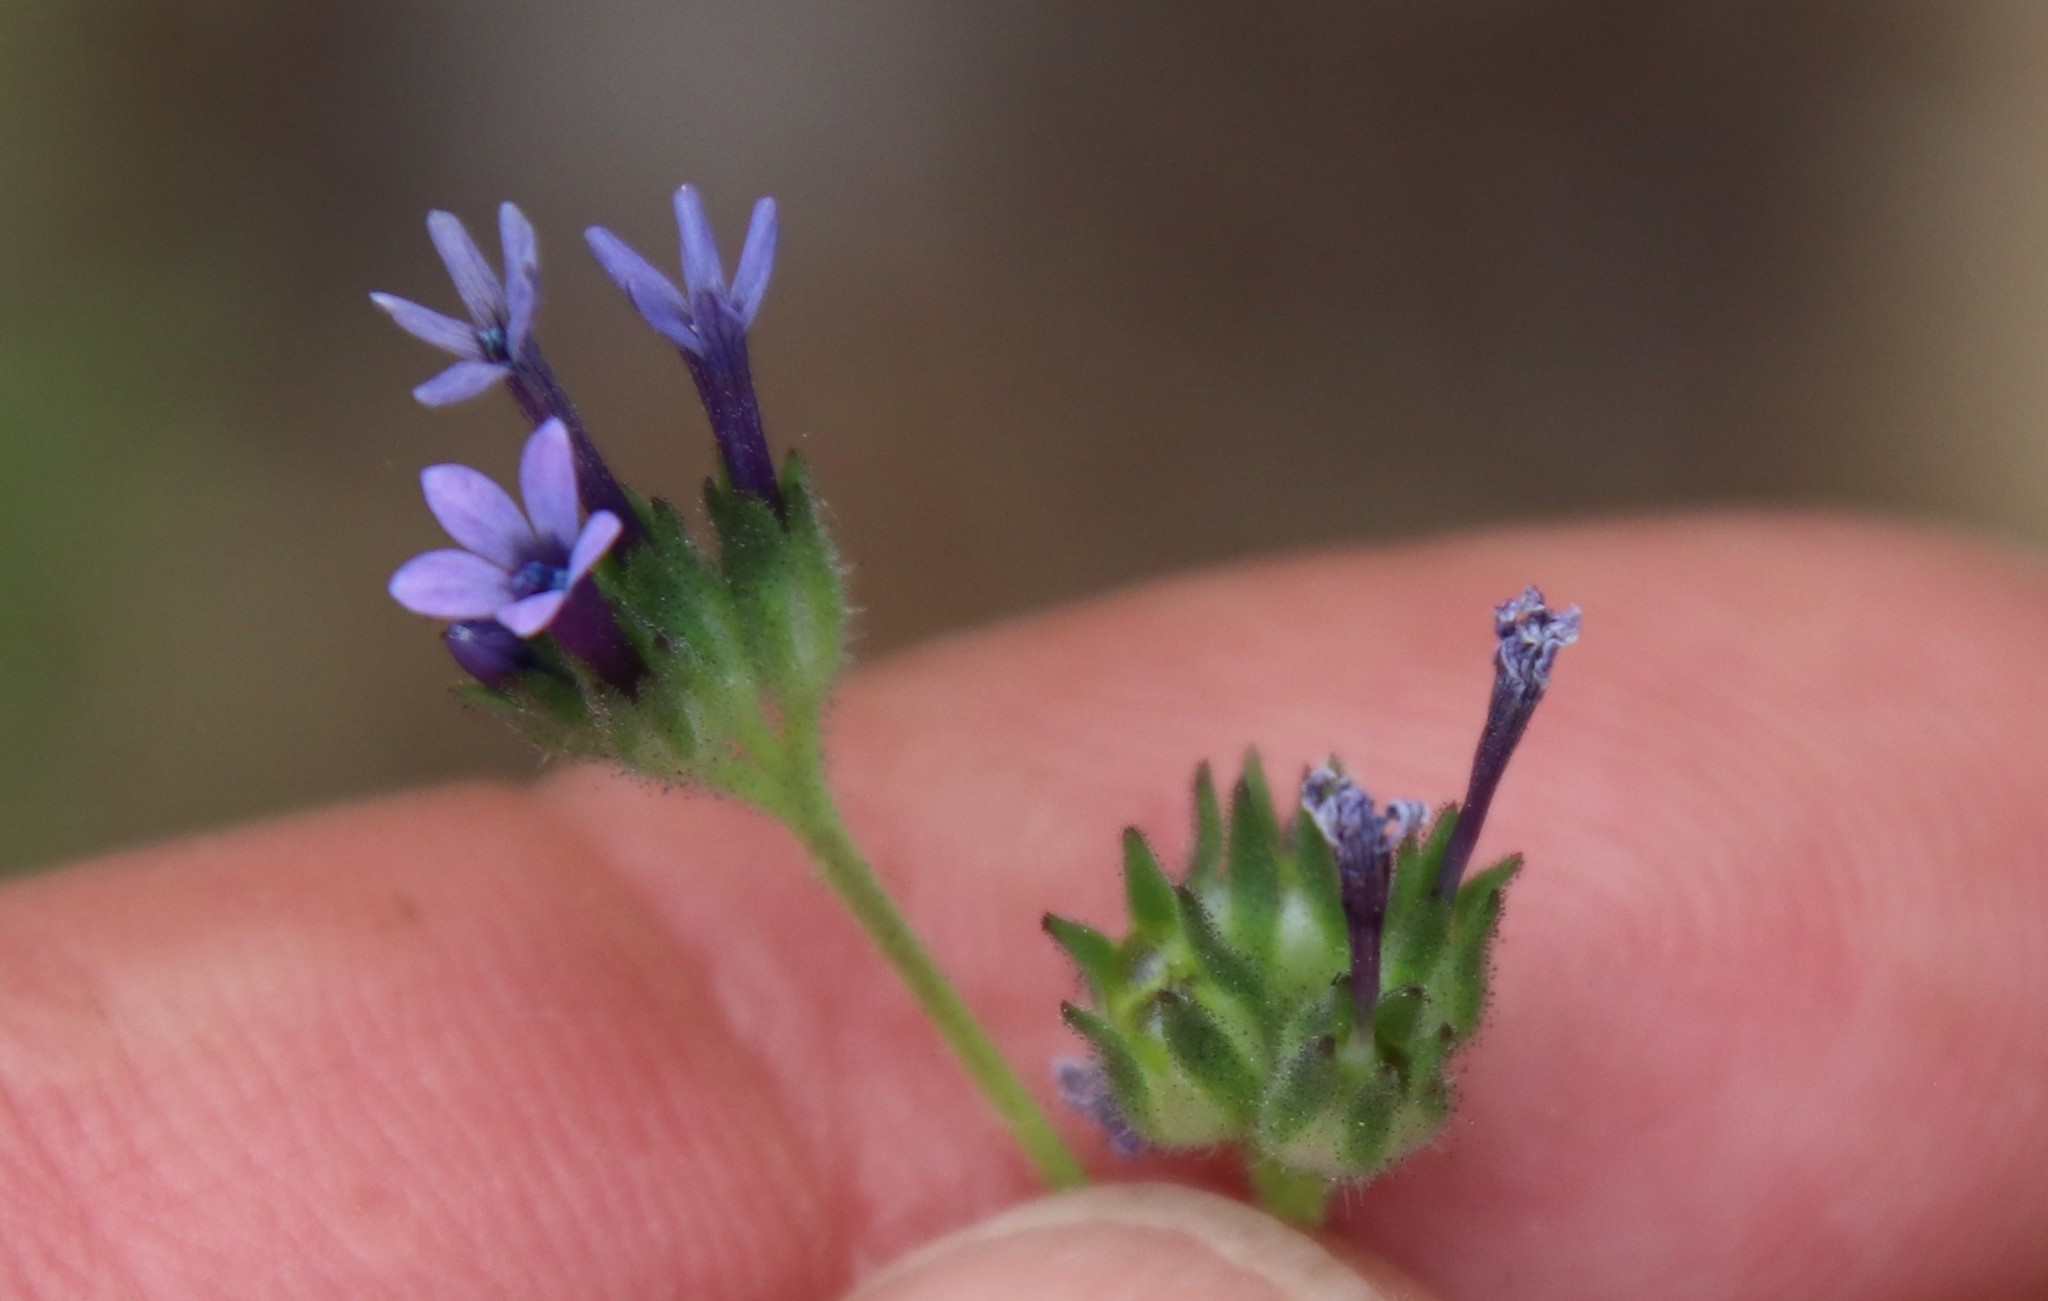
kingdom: Plantae
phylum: Tracheophyta
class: Magnoliopsida
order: Ericales
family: Polemoniaceae
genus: Allophyllum
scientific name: Allophyllum gilioides
